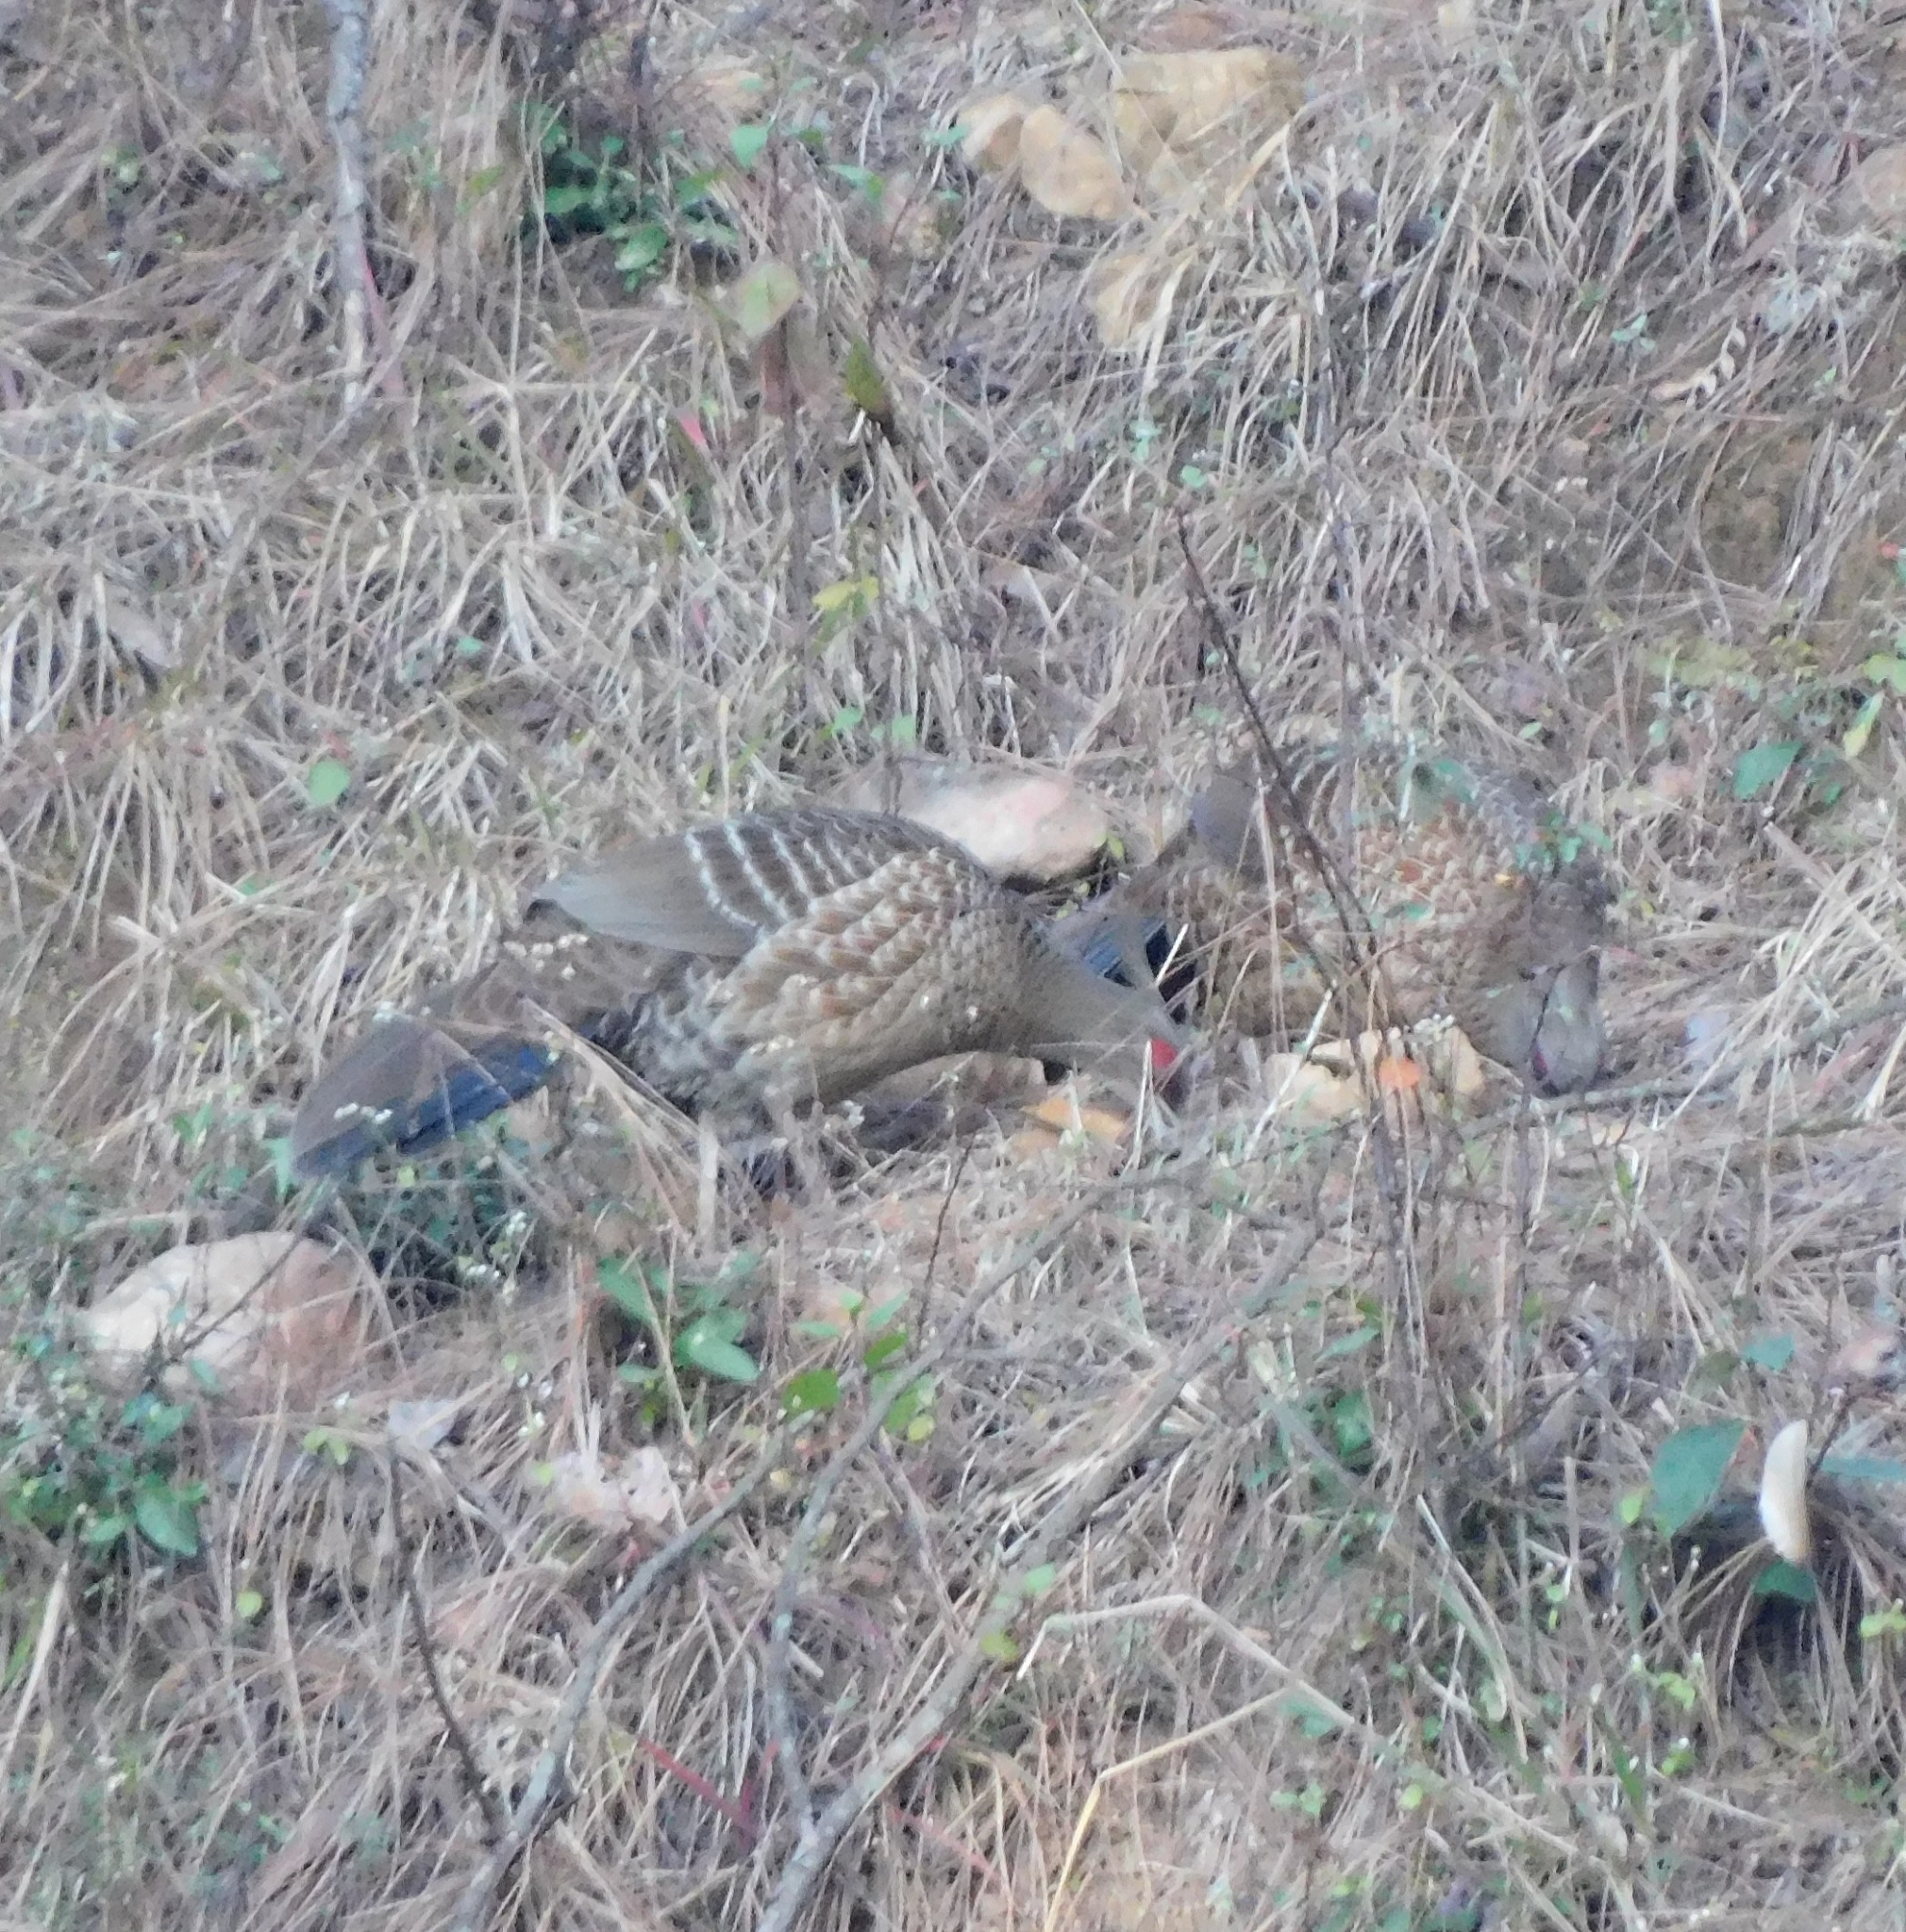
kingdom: Animalia
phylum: Chordata
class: Aves
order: Galliformes
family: Phasianidae
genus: Lophura
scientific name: Lophura leucomelanos
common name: Kalij pheasant
